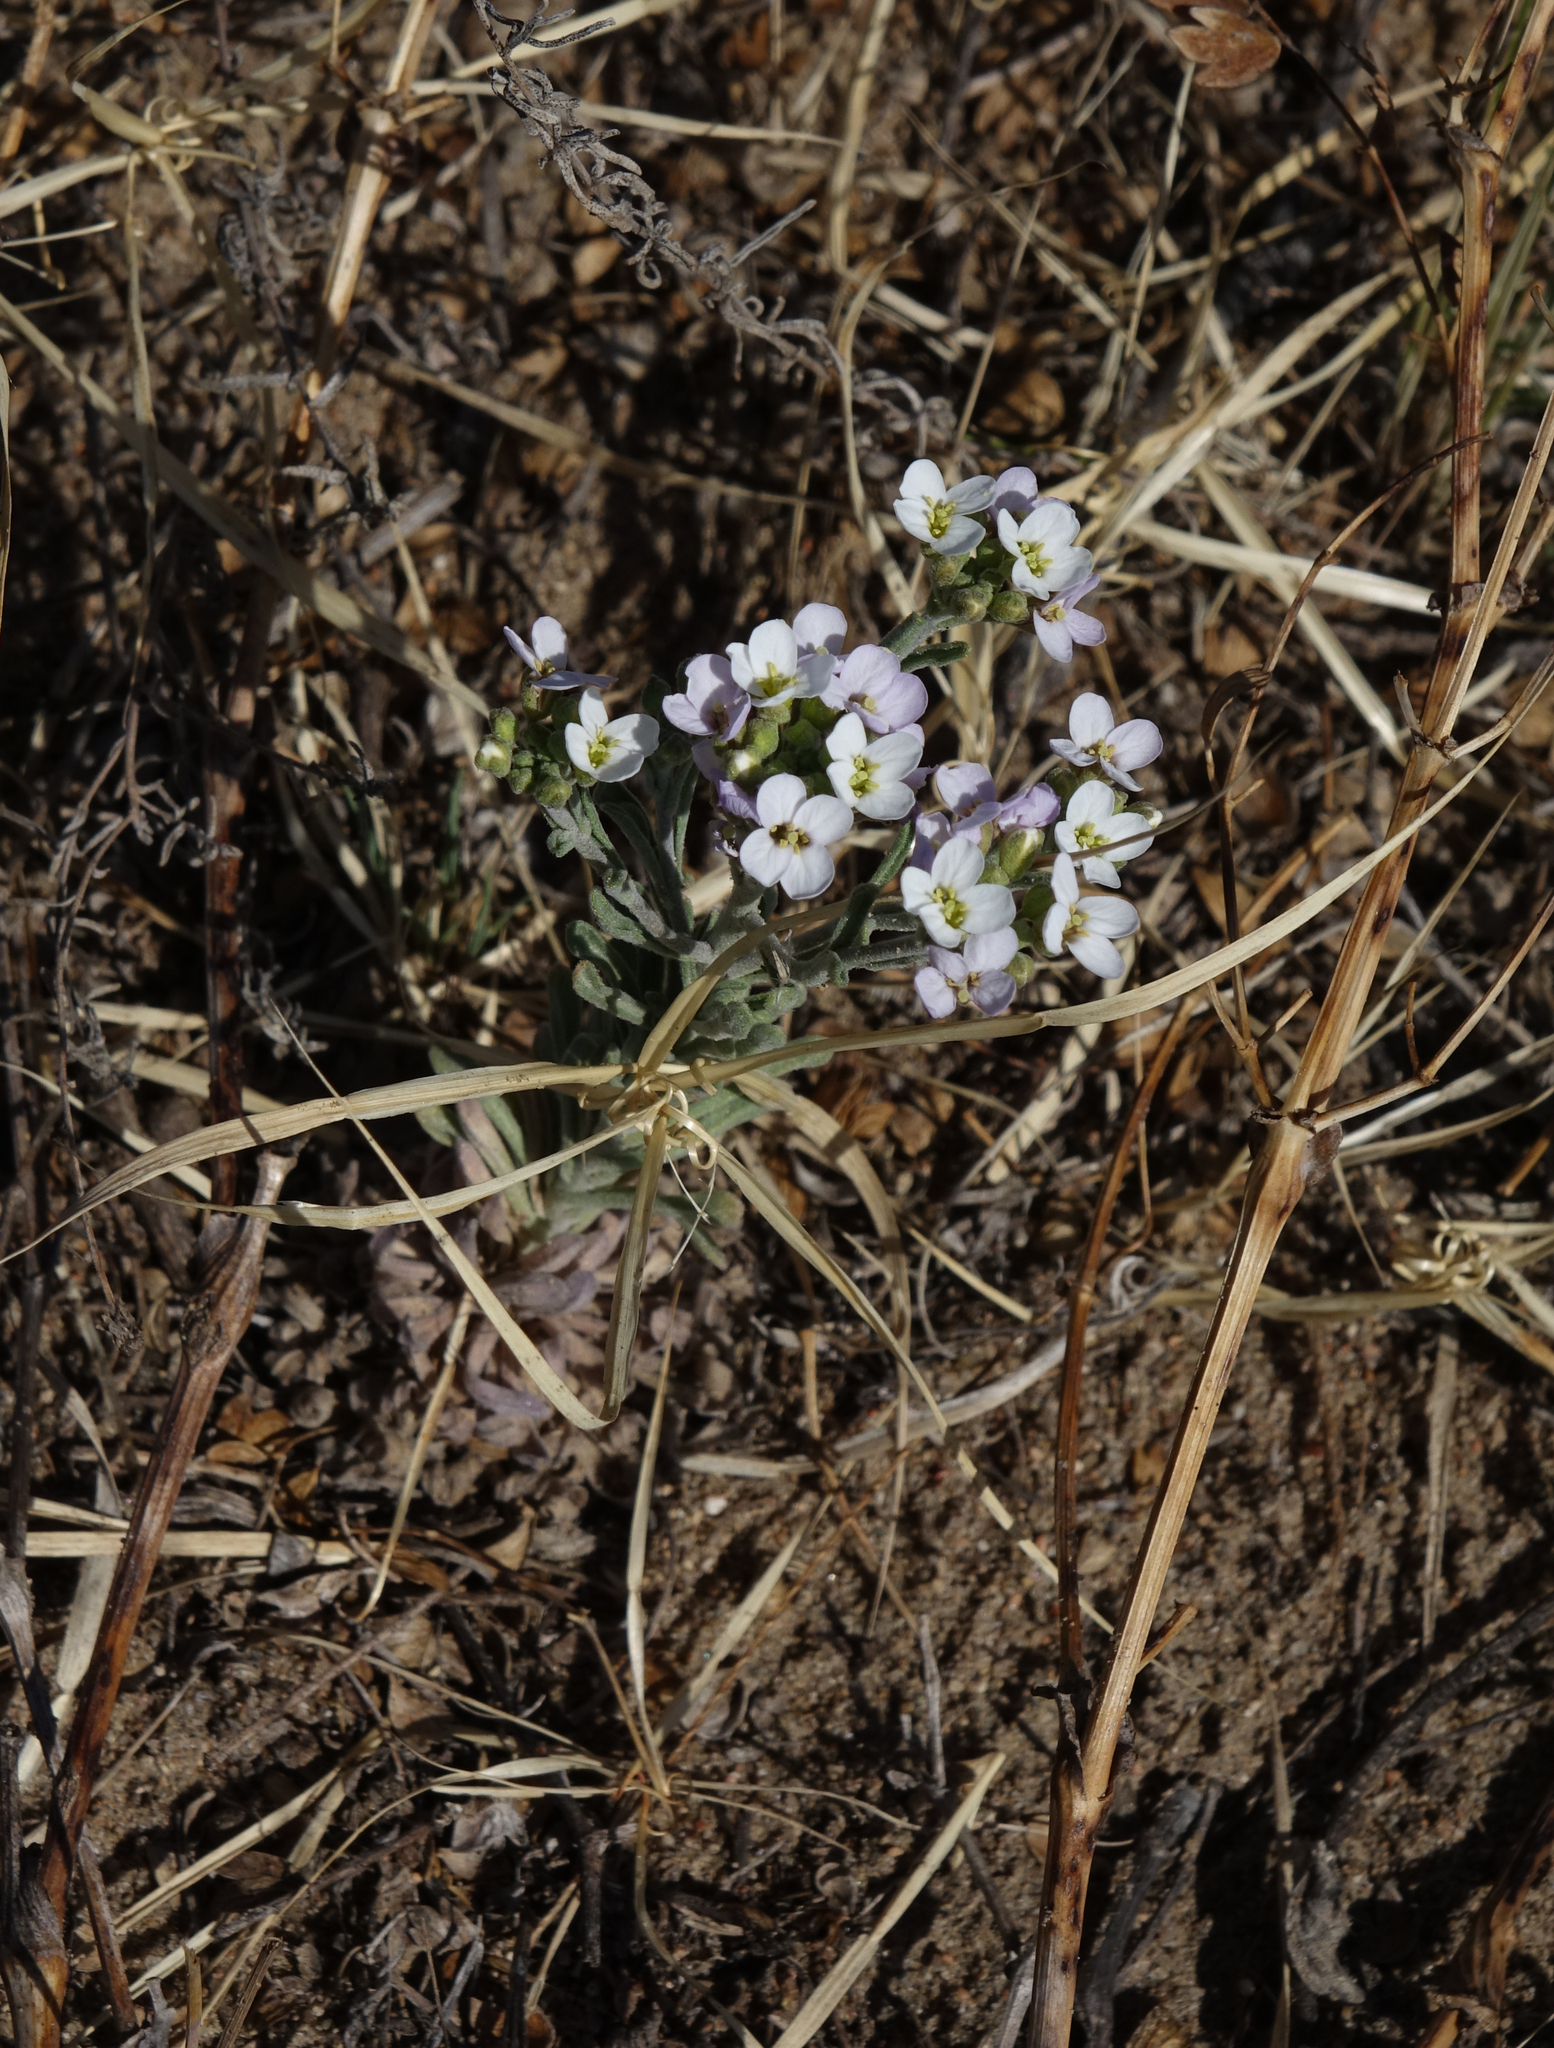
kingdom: Plantae
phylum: Tracheophyta
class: Magnoliopsida
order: Brassicales
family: Brassicaceae
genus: Stevenia
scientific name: Stevenia incarnata
